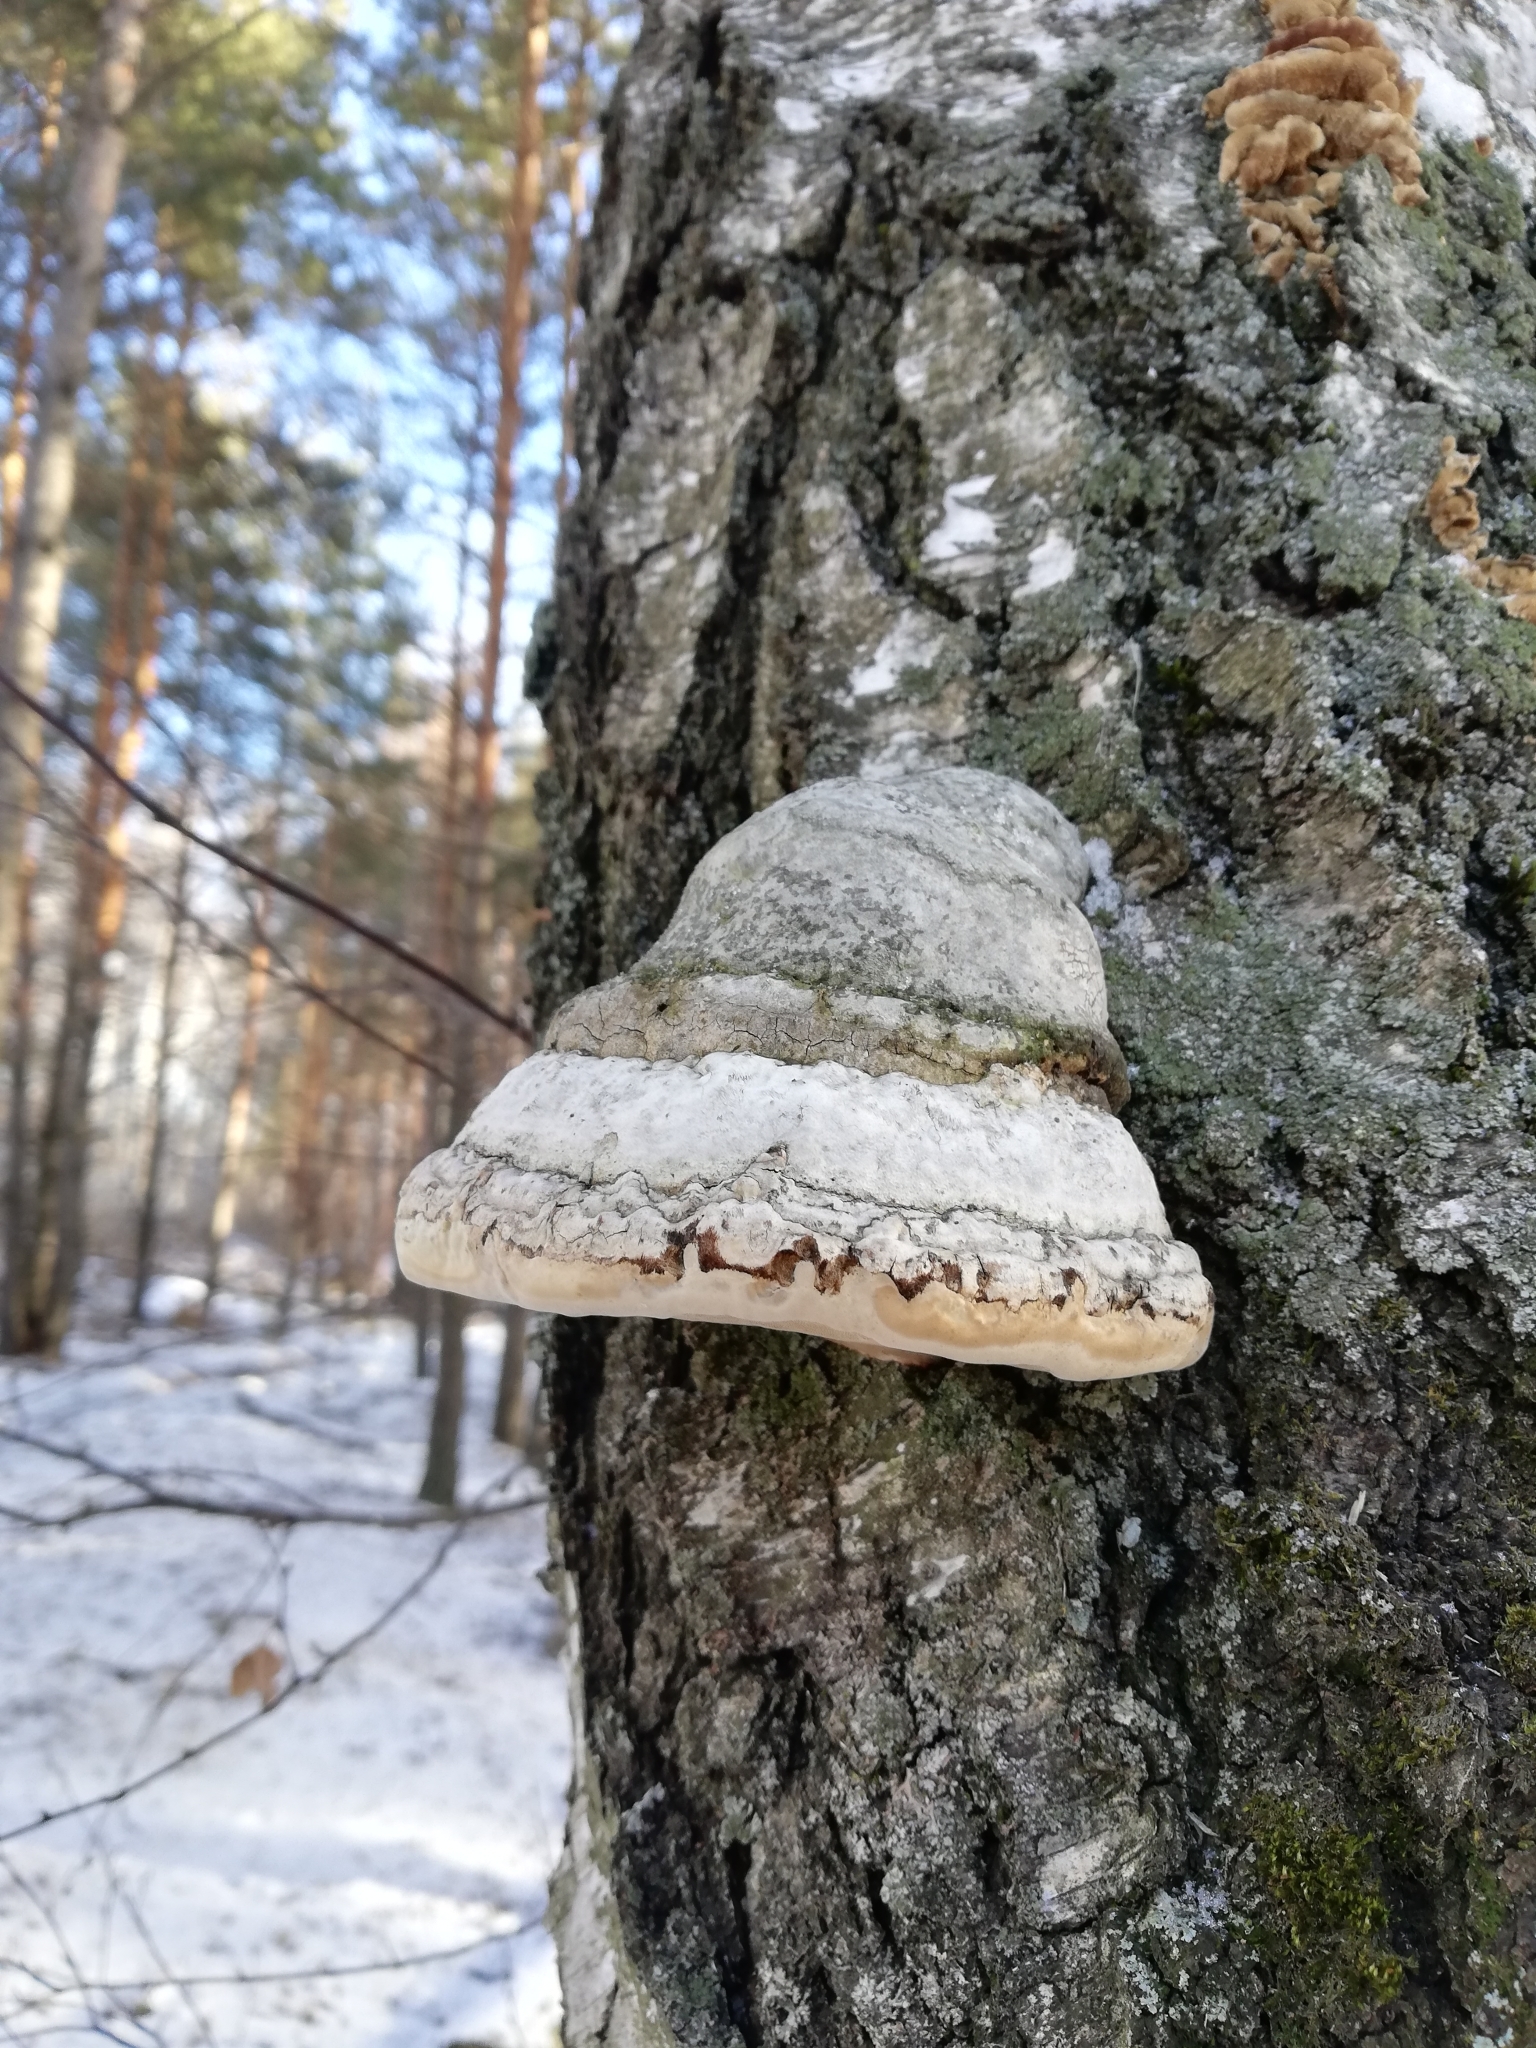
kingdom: Fungi
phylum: Basidiomycota
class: Agaricomycetes
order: Polyporales
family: Polyporaceae
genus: Fomes
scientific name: Fomes fomentarius
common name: Hoof fungus
